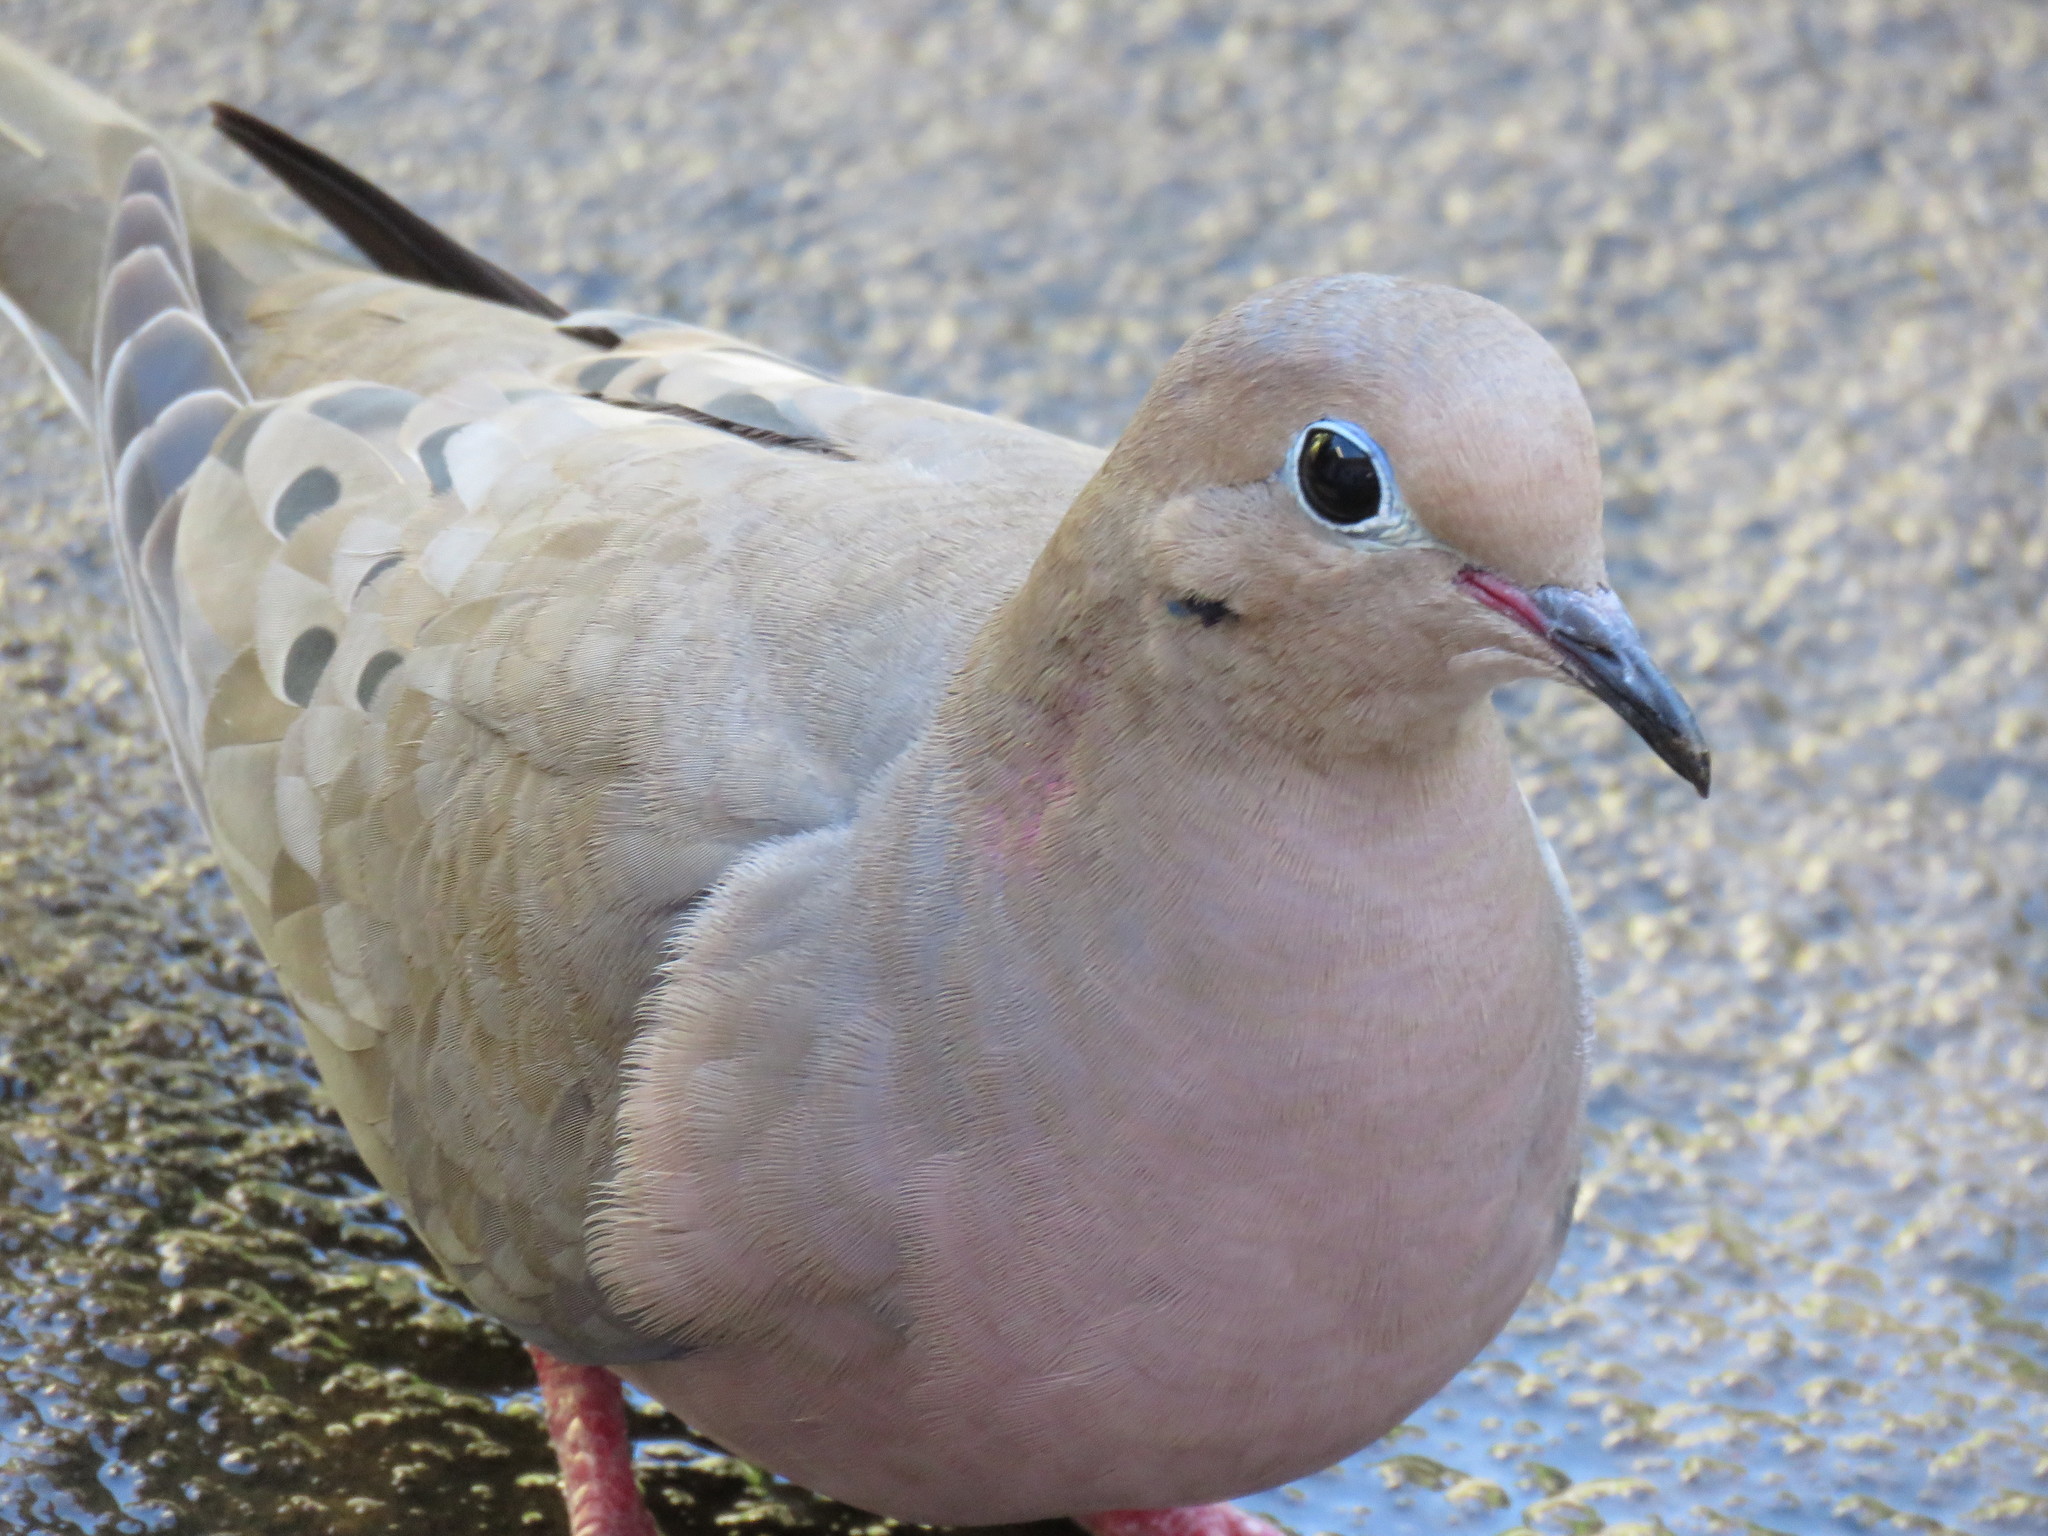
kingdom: Animalia
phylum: Chordata
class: Aves
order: Columbiformes
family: Columbidae
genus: Zenaida
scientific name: Zenaida macroura
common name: Mourning dove
